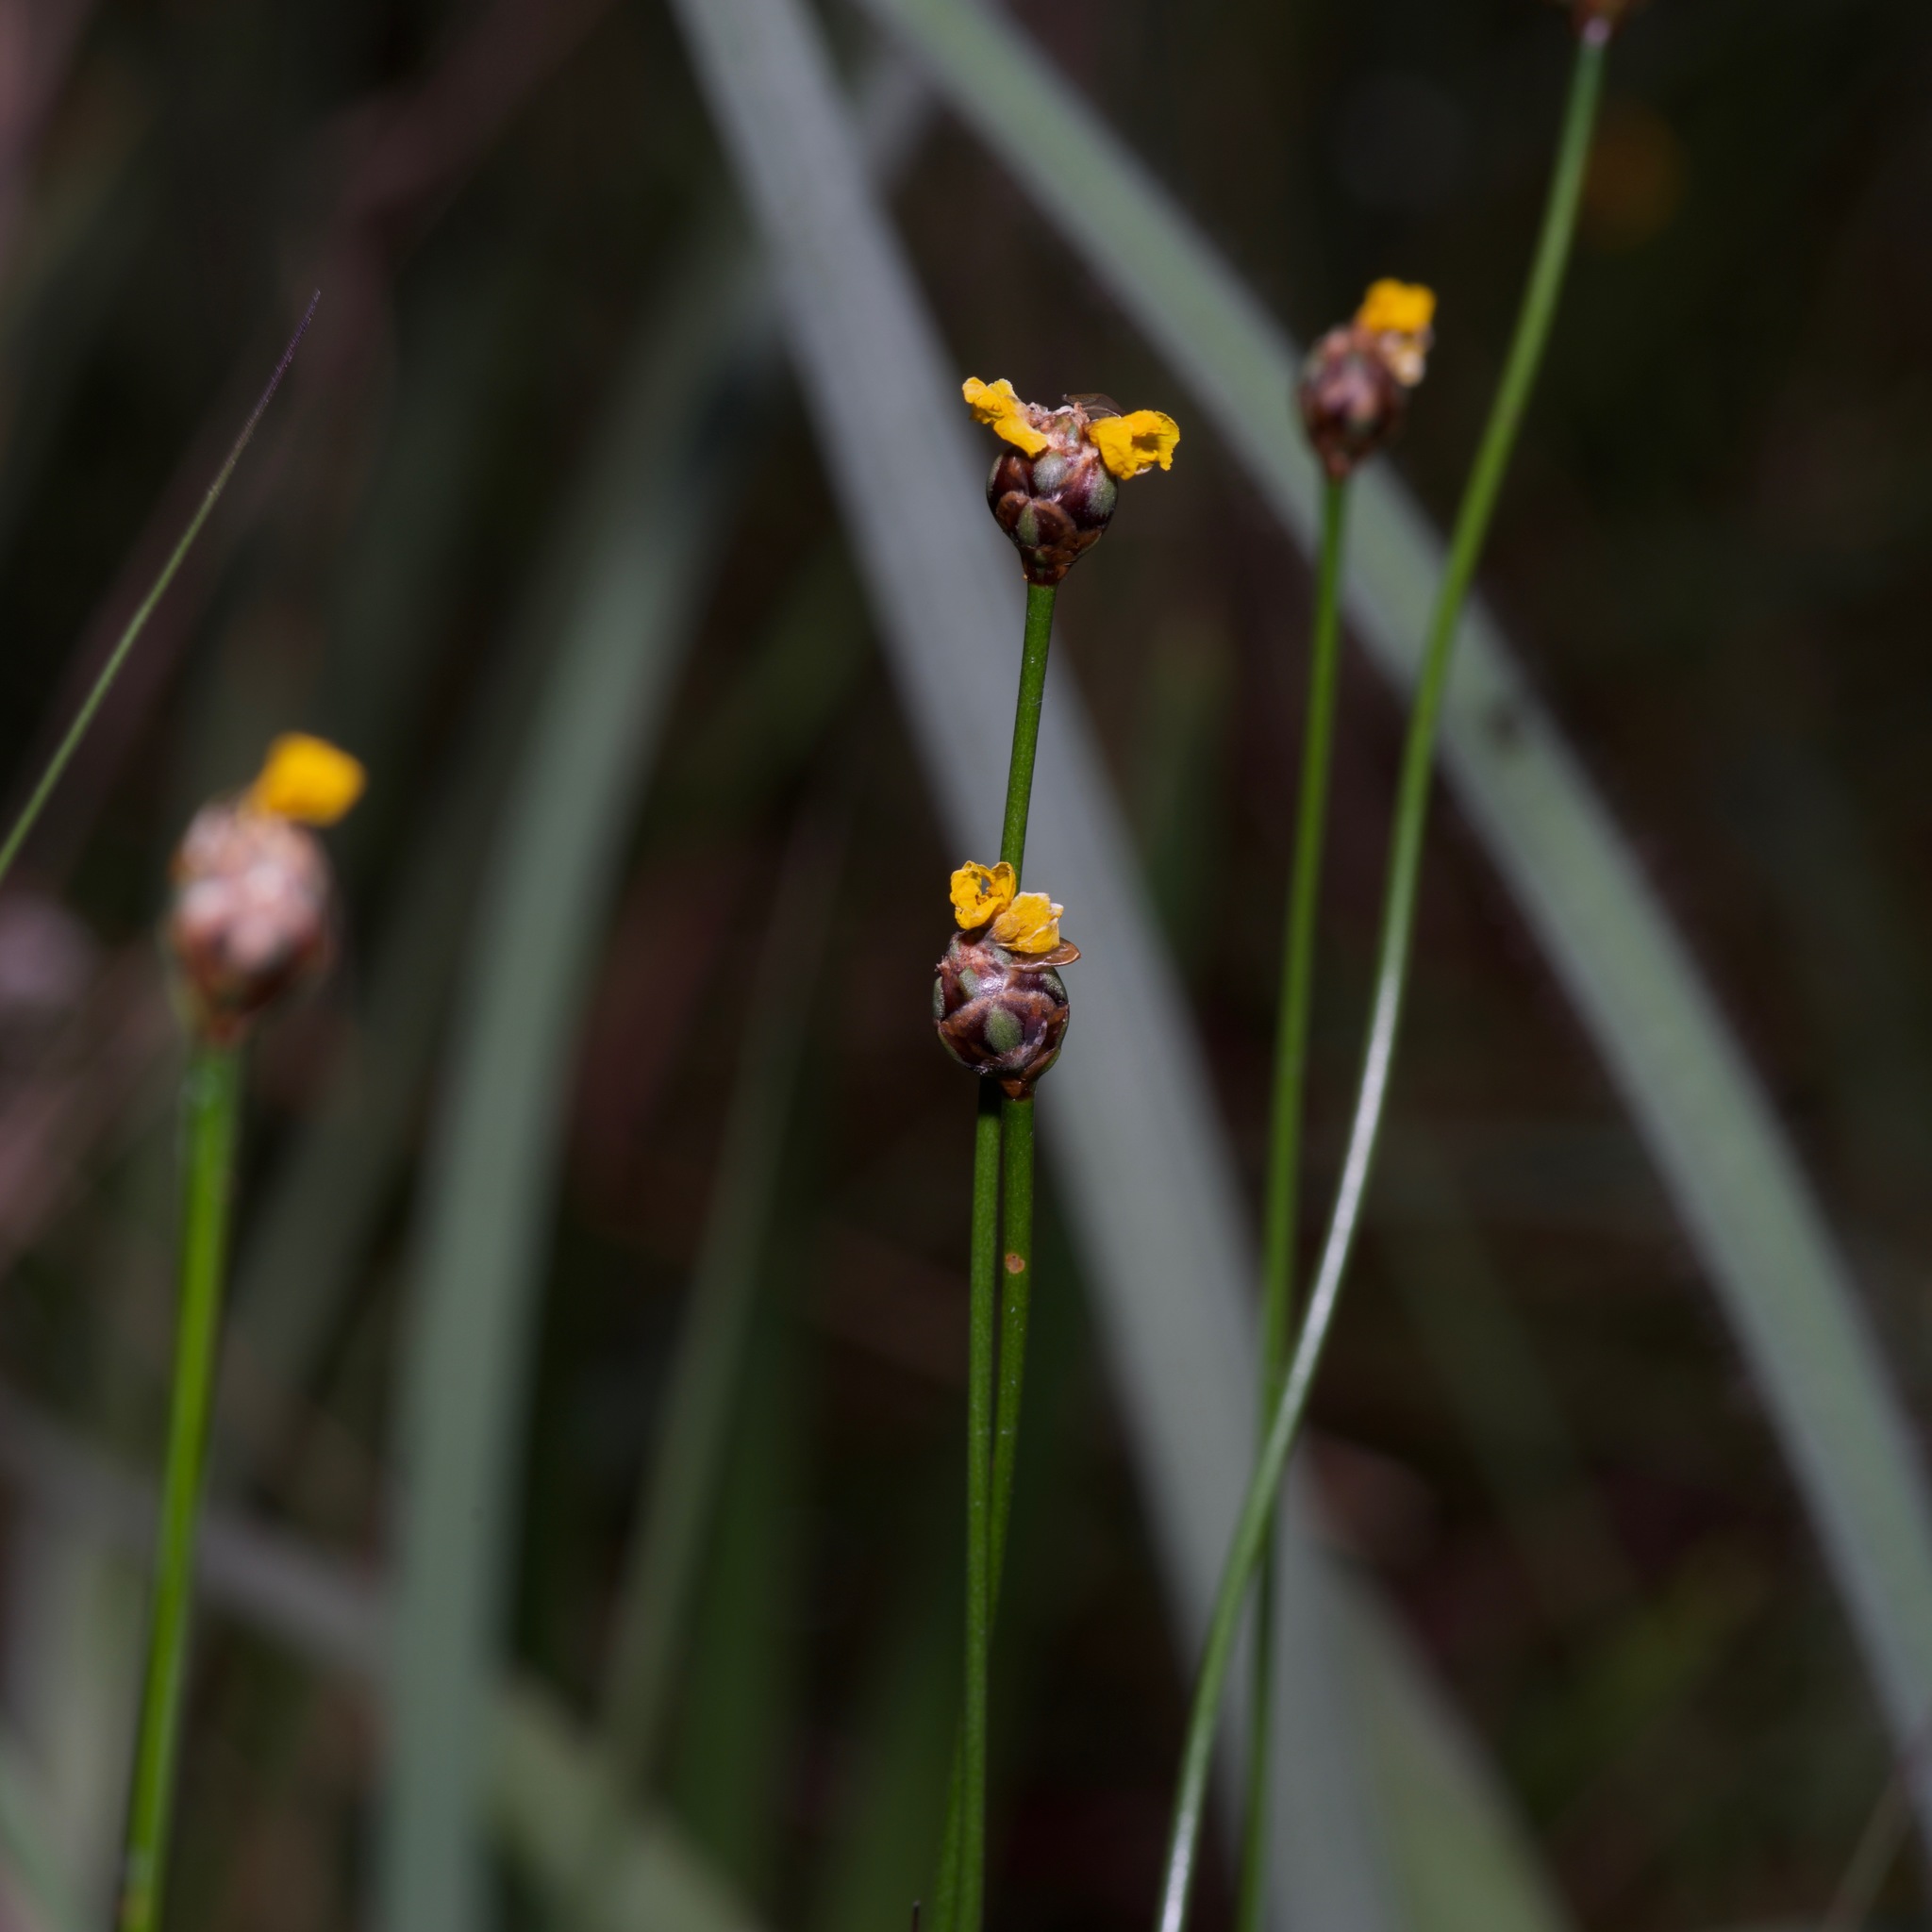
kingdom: Plantae
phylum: Tracheophyta
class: Liliopsida
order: Poales
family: Xyridaceae
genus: Xyris
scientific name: Xyris baldwiniana
